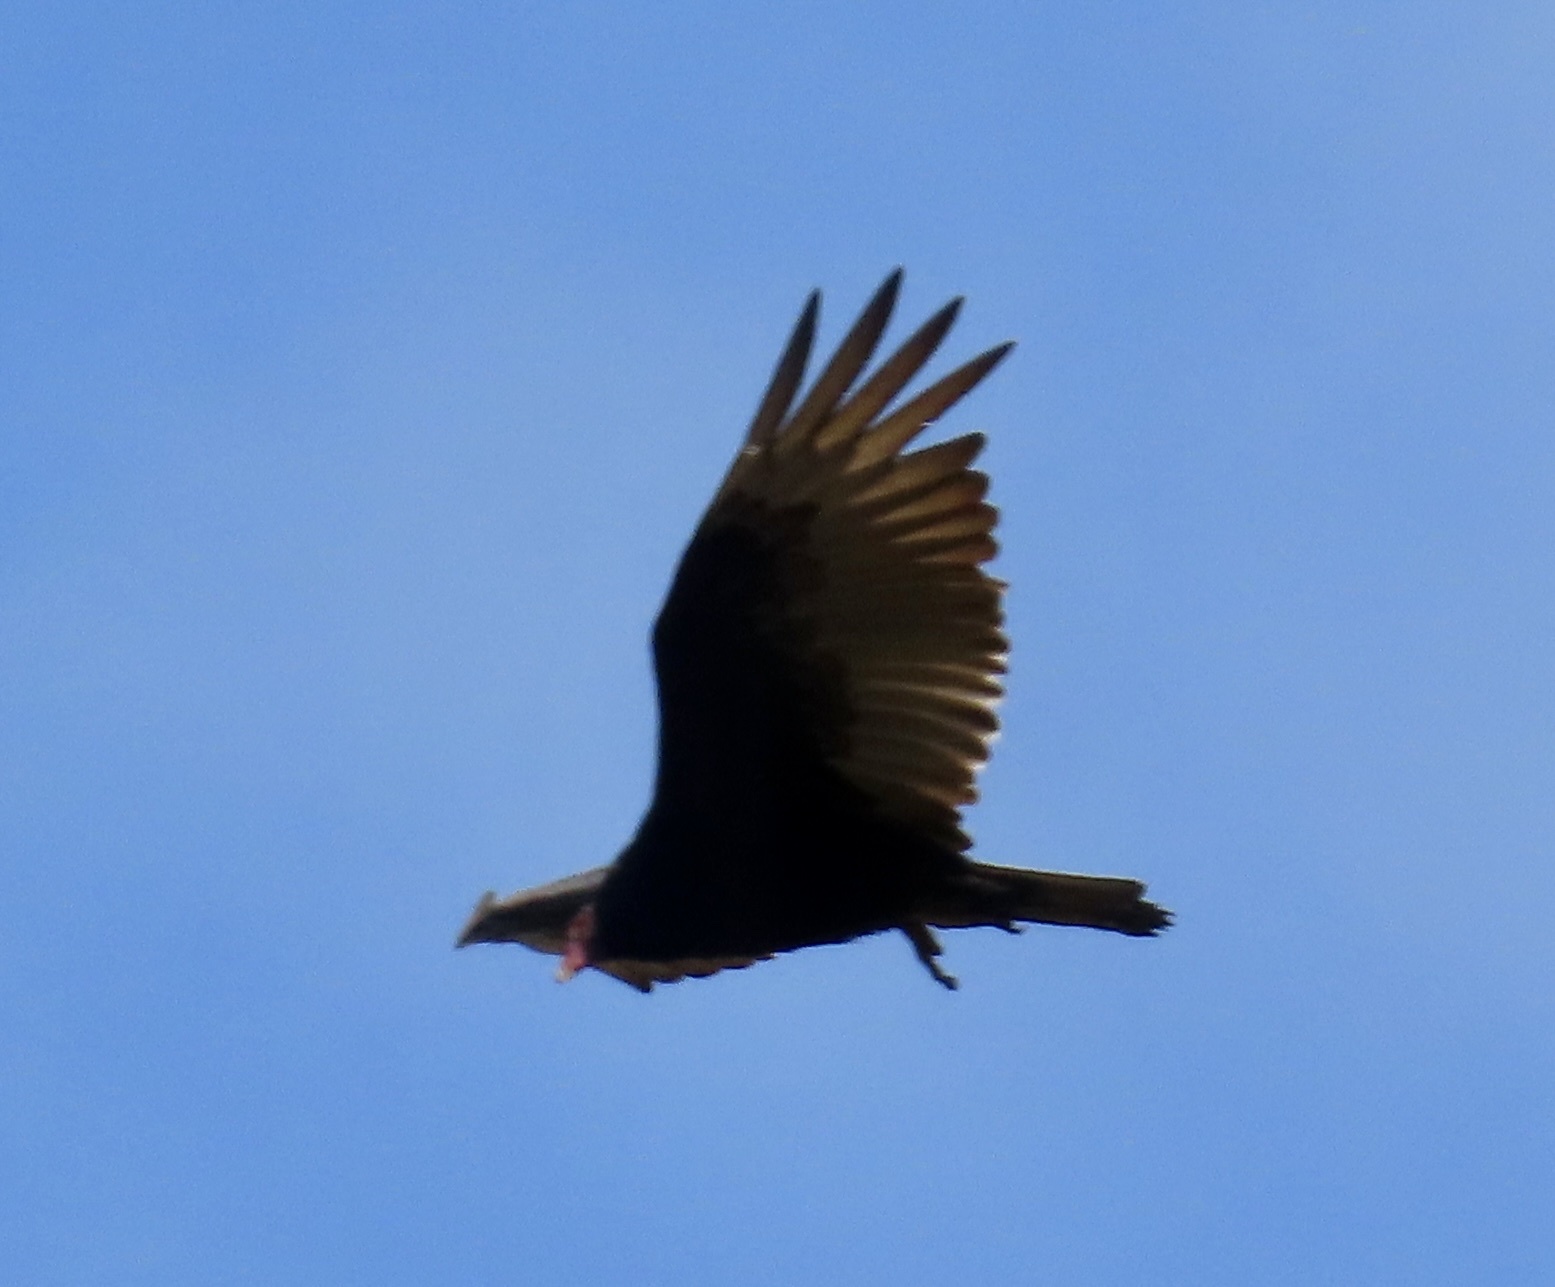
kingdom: Animalia
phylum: Chordata
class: Aves
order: Accipitriformes
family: Cathartidae
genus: Cathartes
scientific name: Cathartes aura
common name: Turkey vulture
